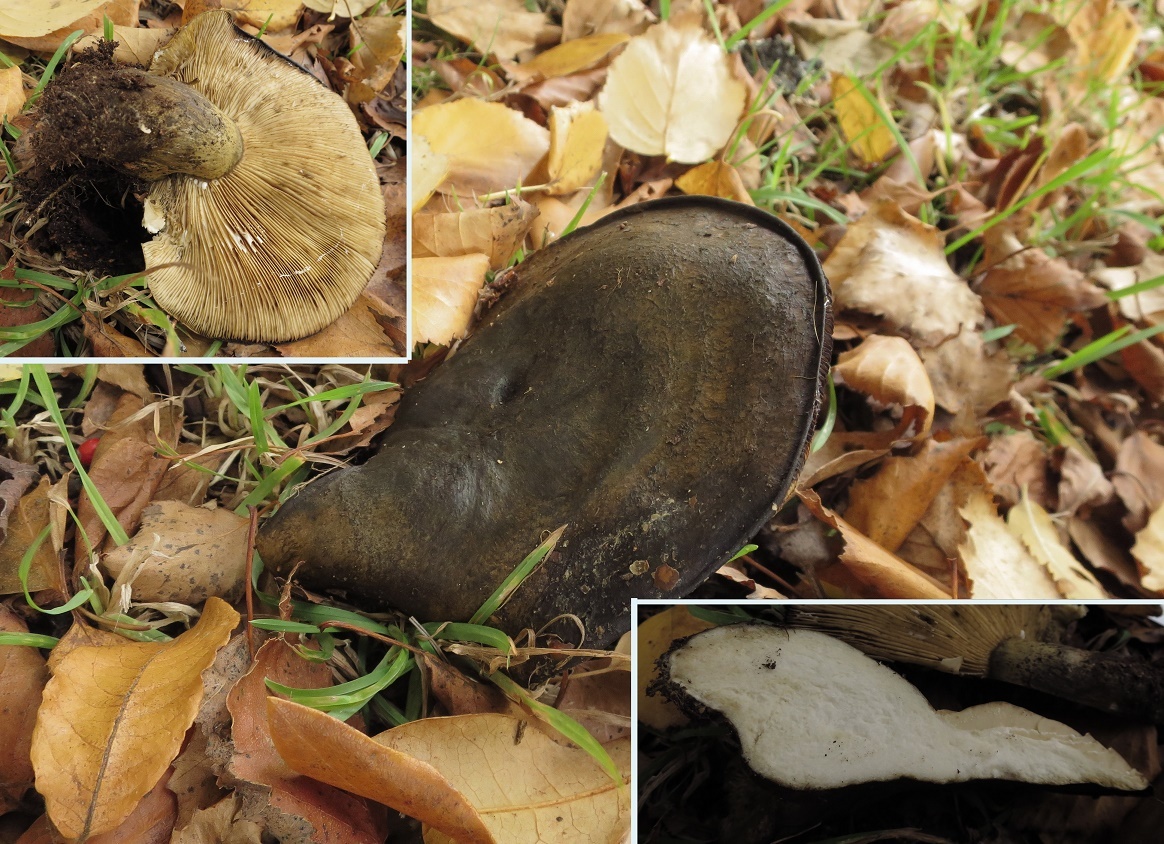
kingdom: Fungi
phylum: Basidiomycota
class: Agaricomycetes
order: Russulales
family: Russulaceae
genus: Lactarius
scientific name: Lactarius turpis
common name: Ugly milk-cap
